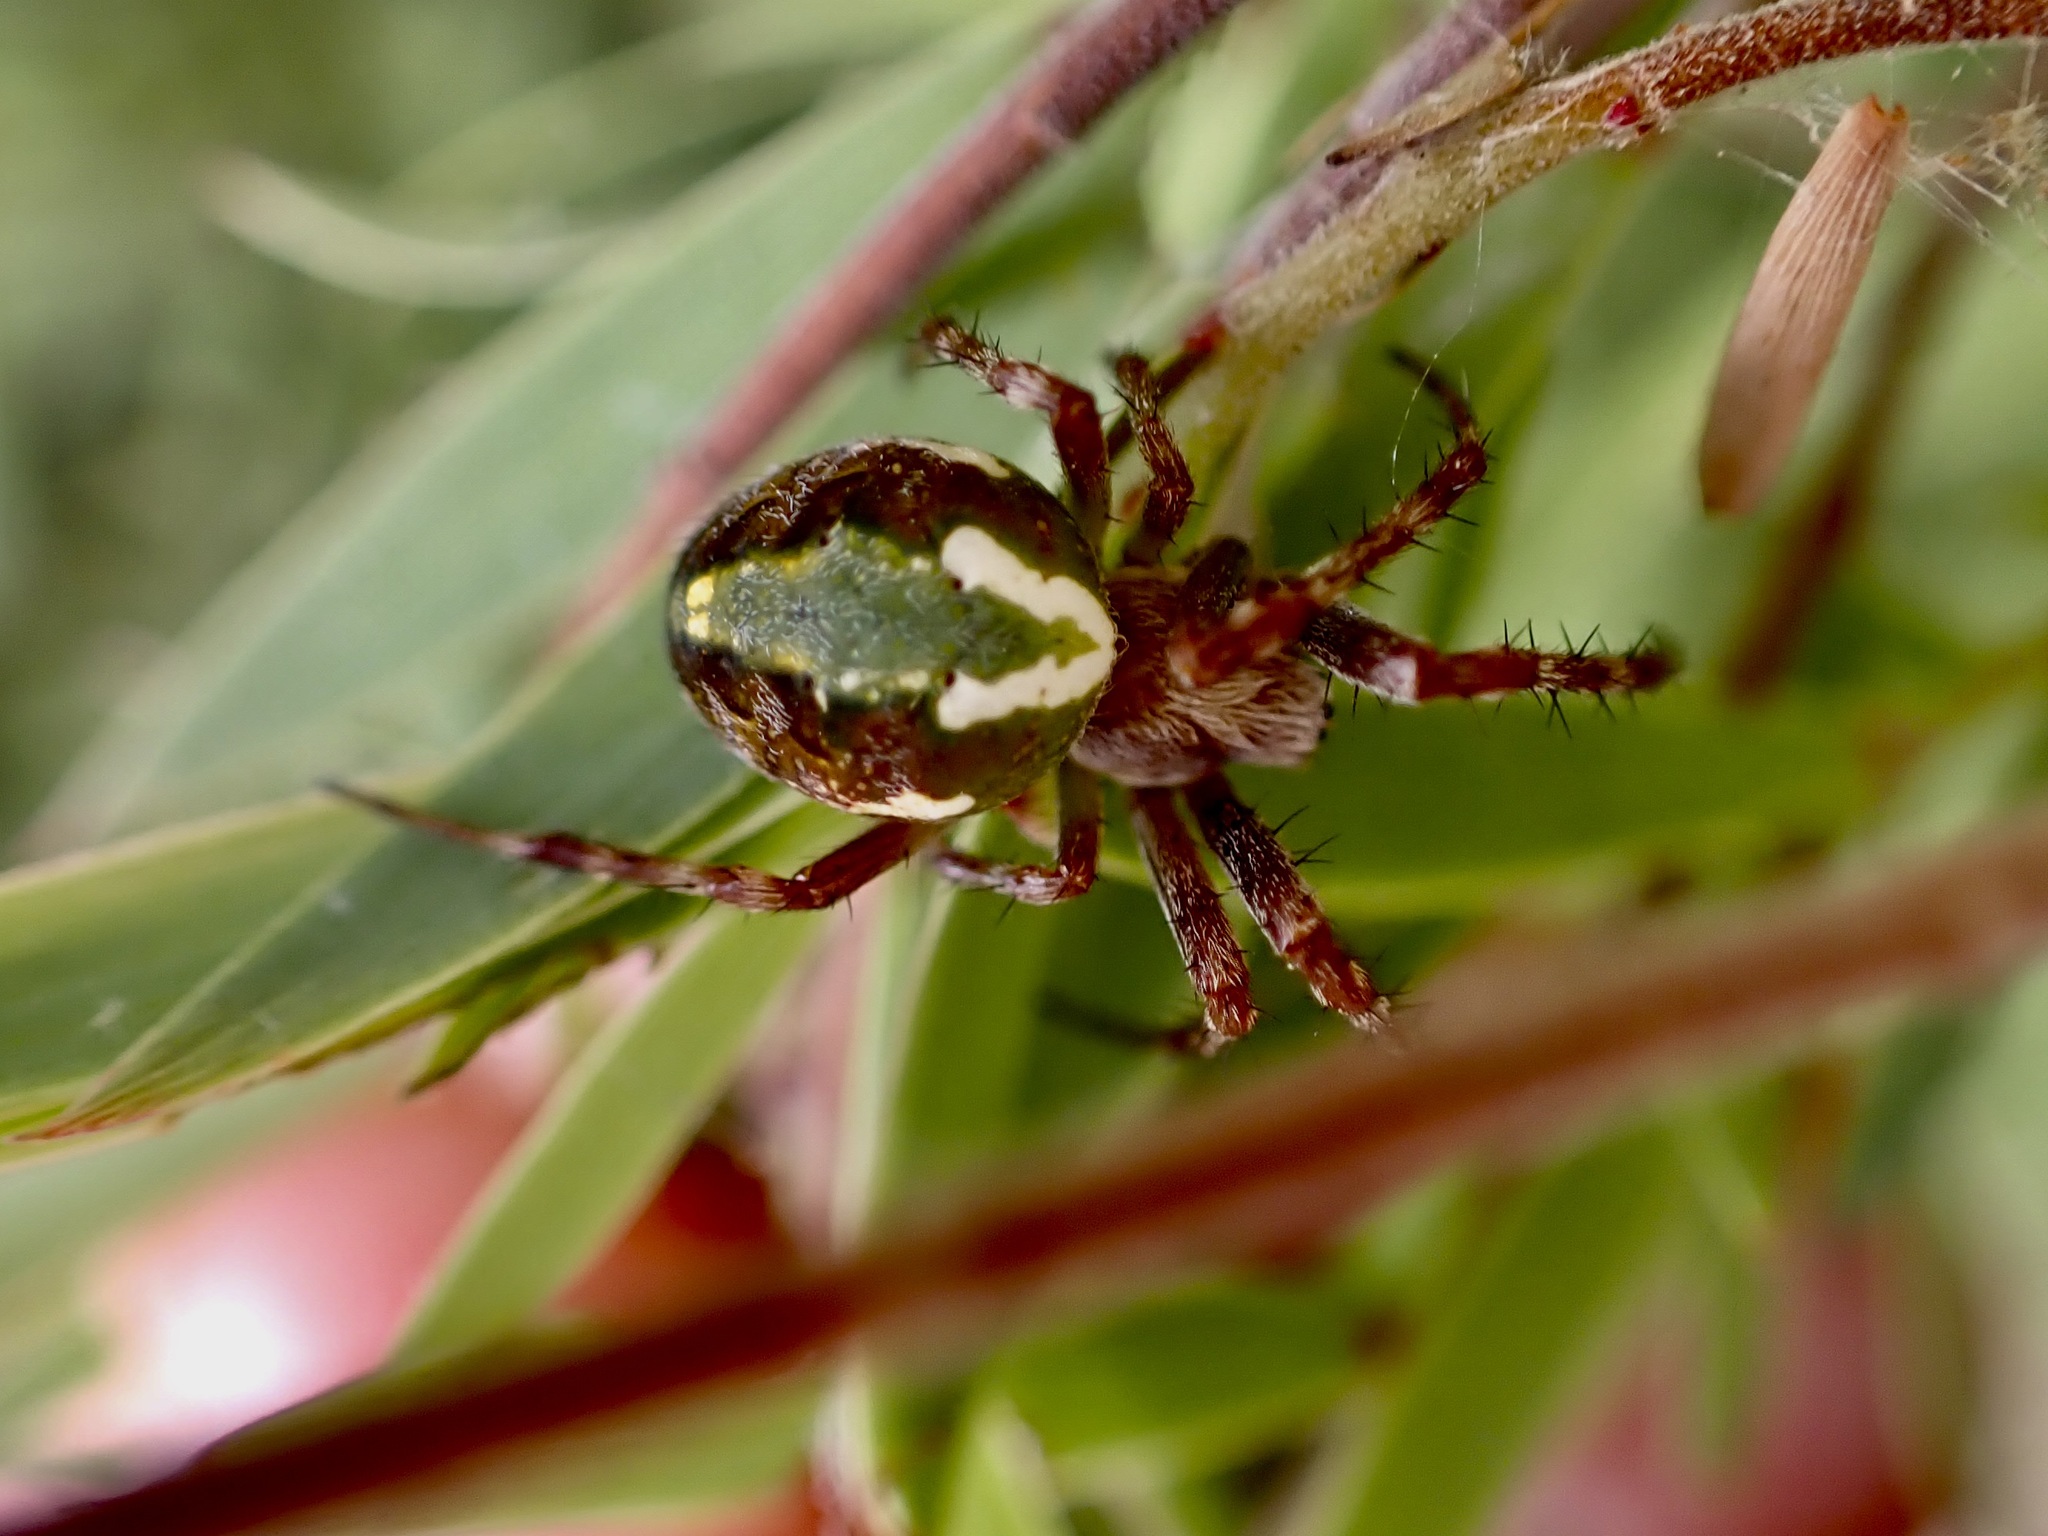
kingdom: Animalia
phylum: Arthropoda
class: Arachnida
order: Araneae
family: Araneidae
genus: Novaranea
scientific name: Novaranea queribunda
